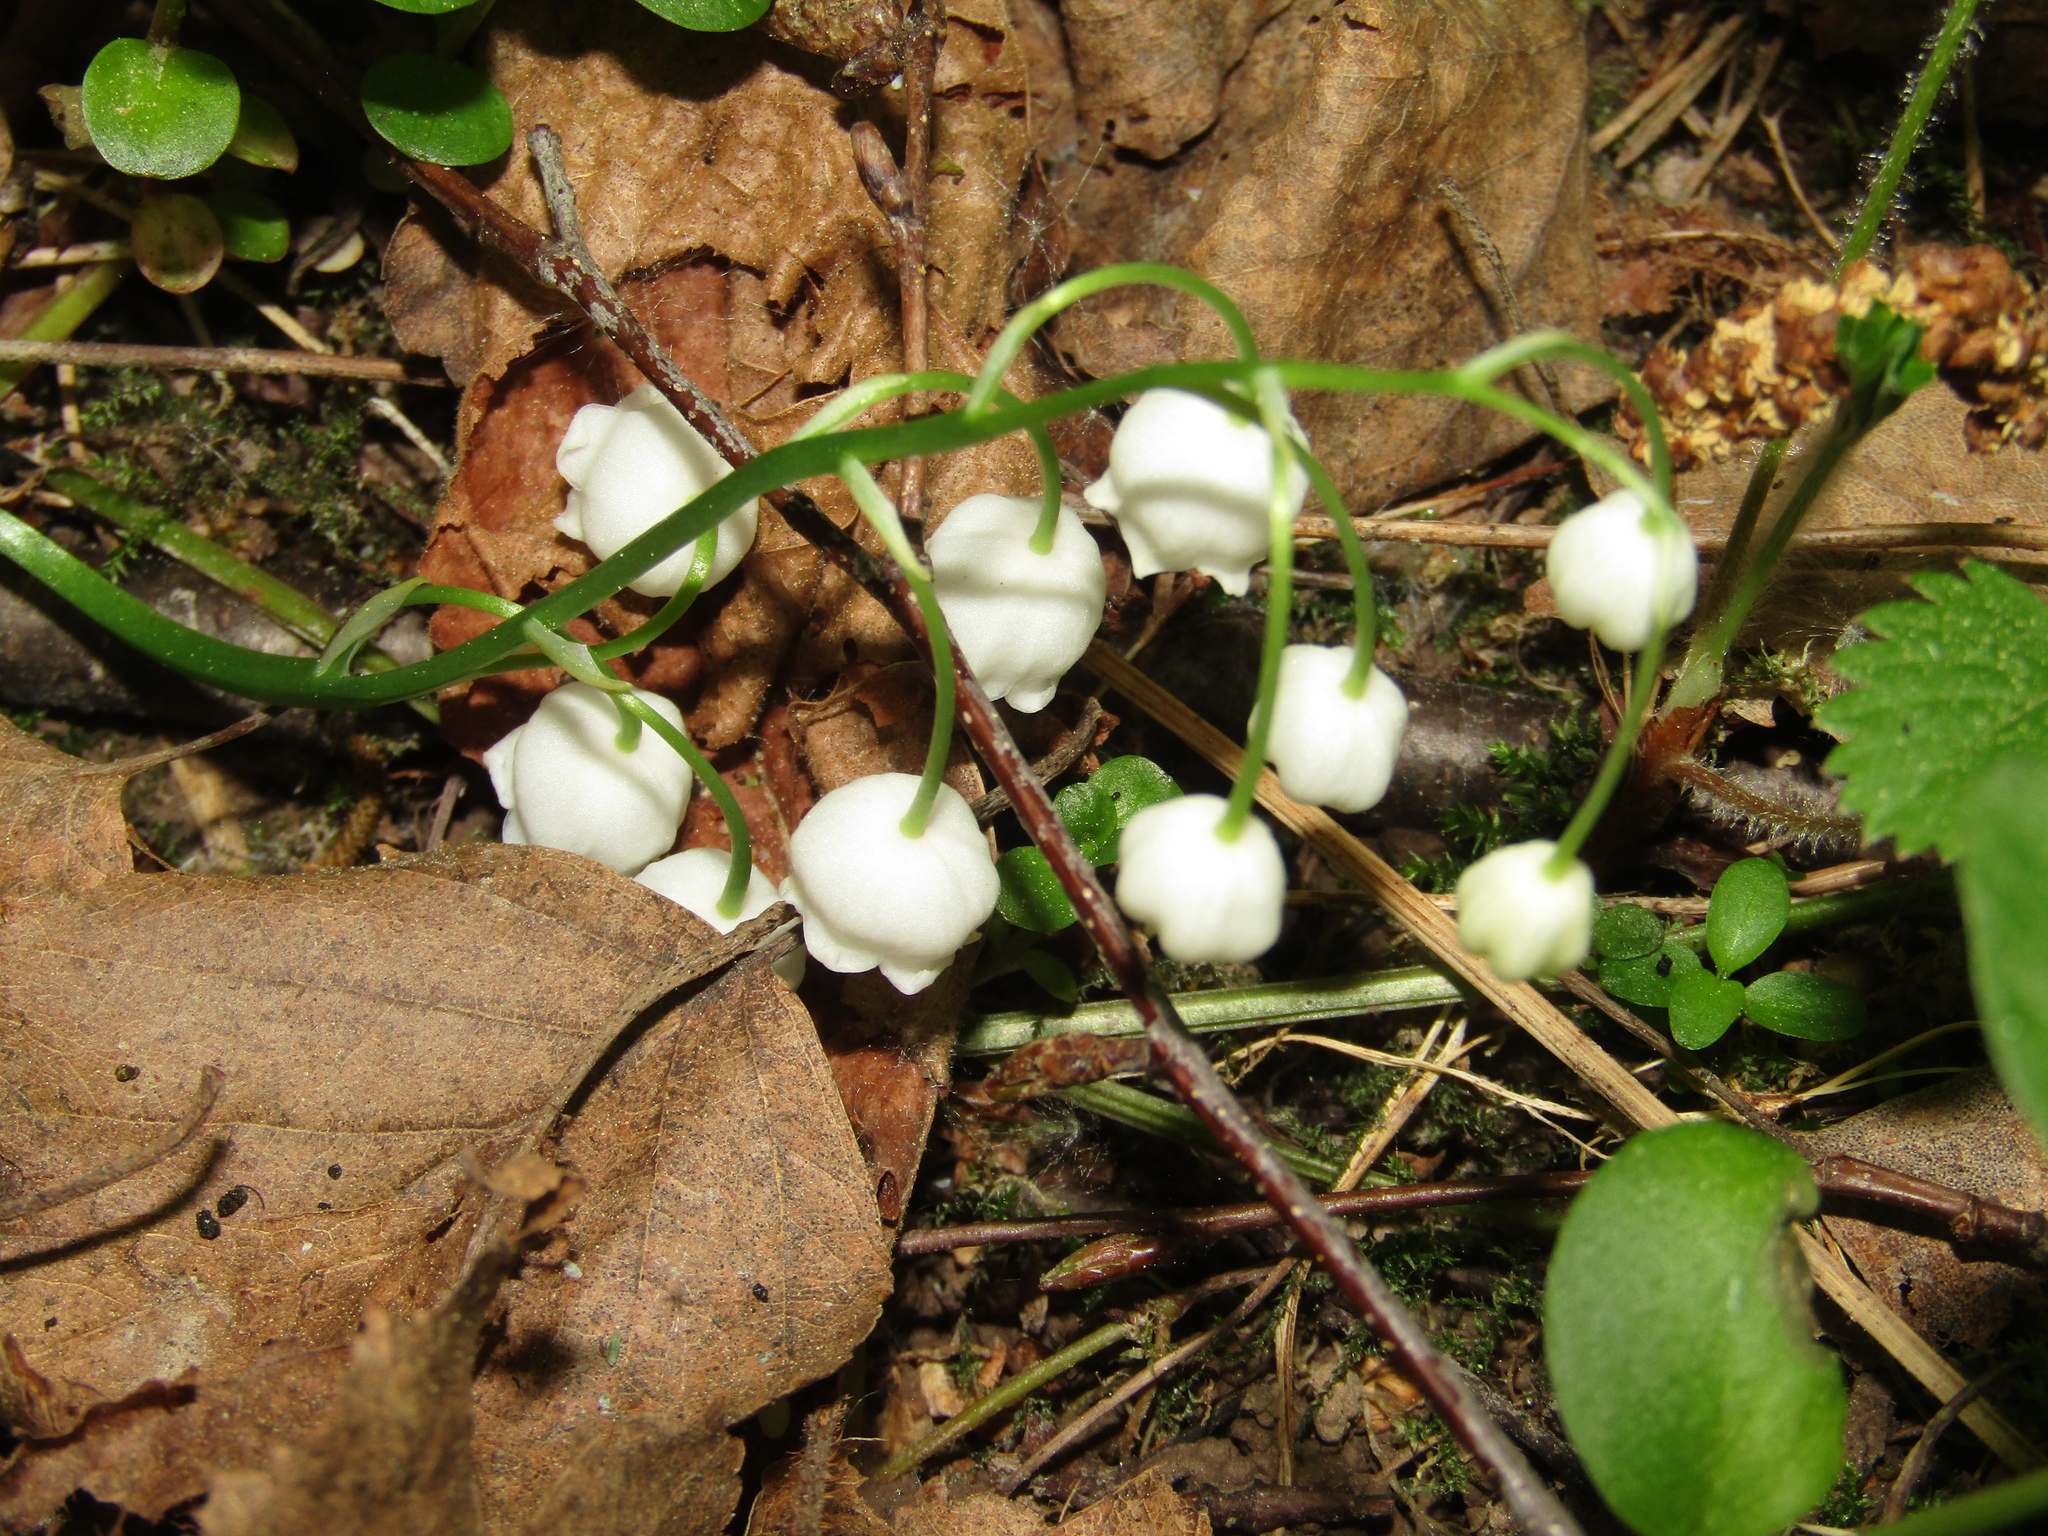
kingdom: Plantae
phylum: Tracheophyta
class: Liliopsida
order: Asparagales
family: Asparagaceae
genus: Convallaria
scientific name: Convallaria majalis
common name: Lily-of-the-valley
